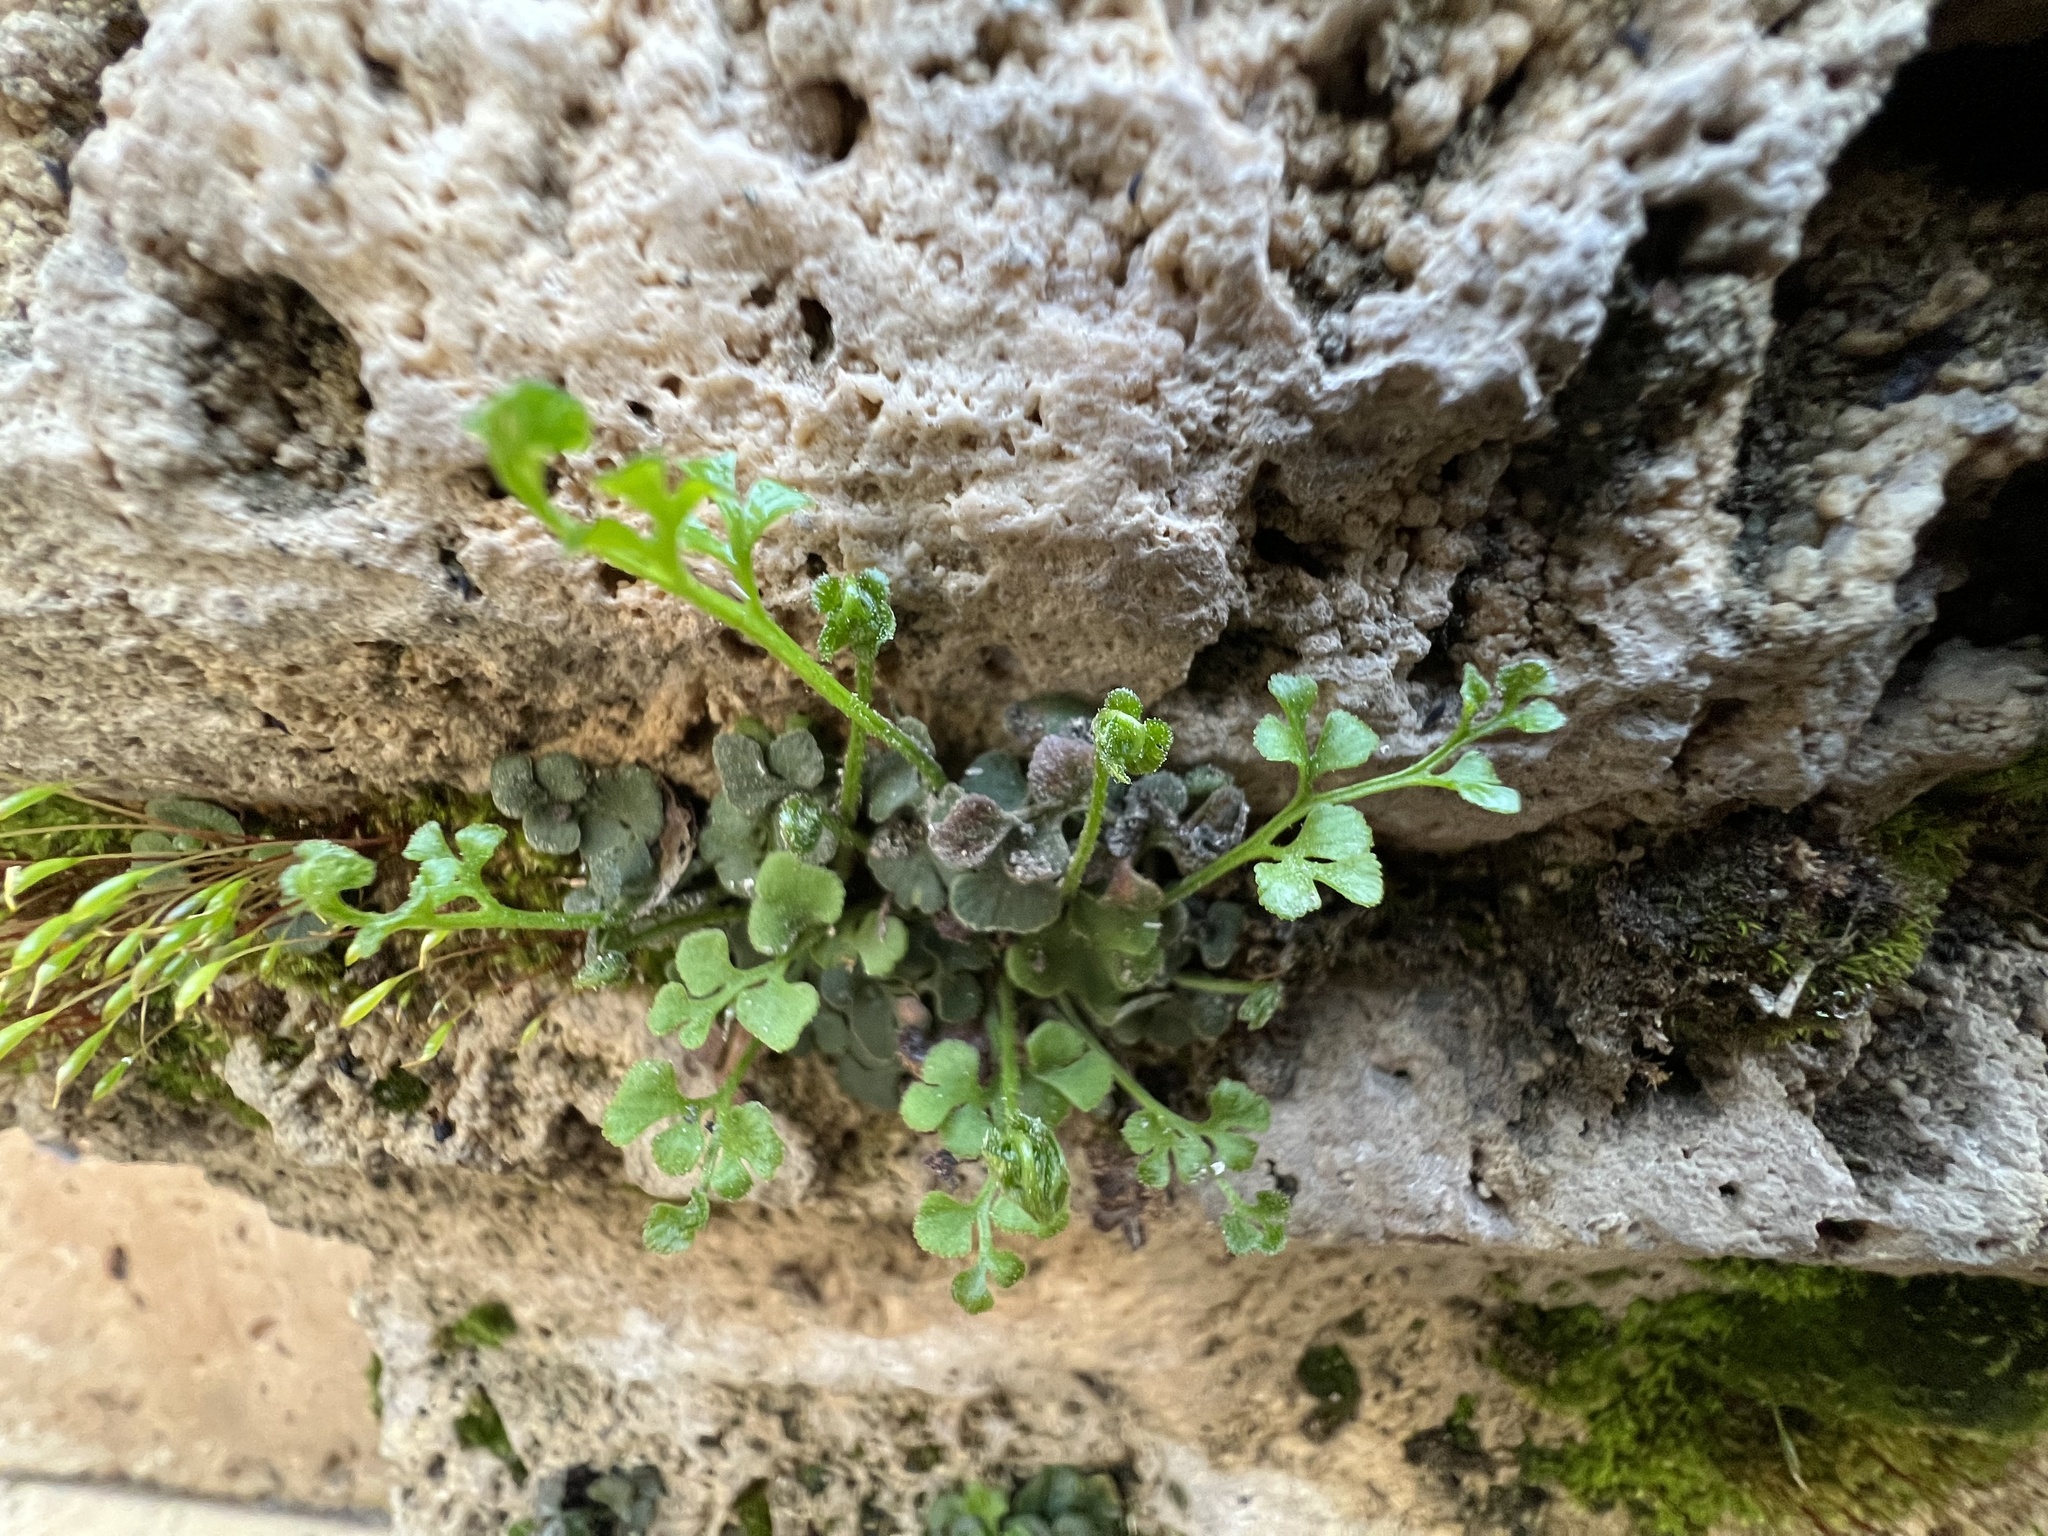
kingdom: Plantae
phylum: Tracheophyta
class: Polypodiopsida
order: Polypodiales
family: Aspleniaceae
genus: Asplenium
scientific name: Asplenium ruta-muraria
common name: Wall-rue
